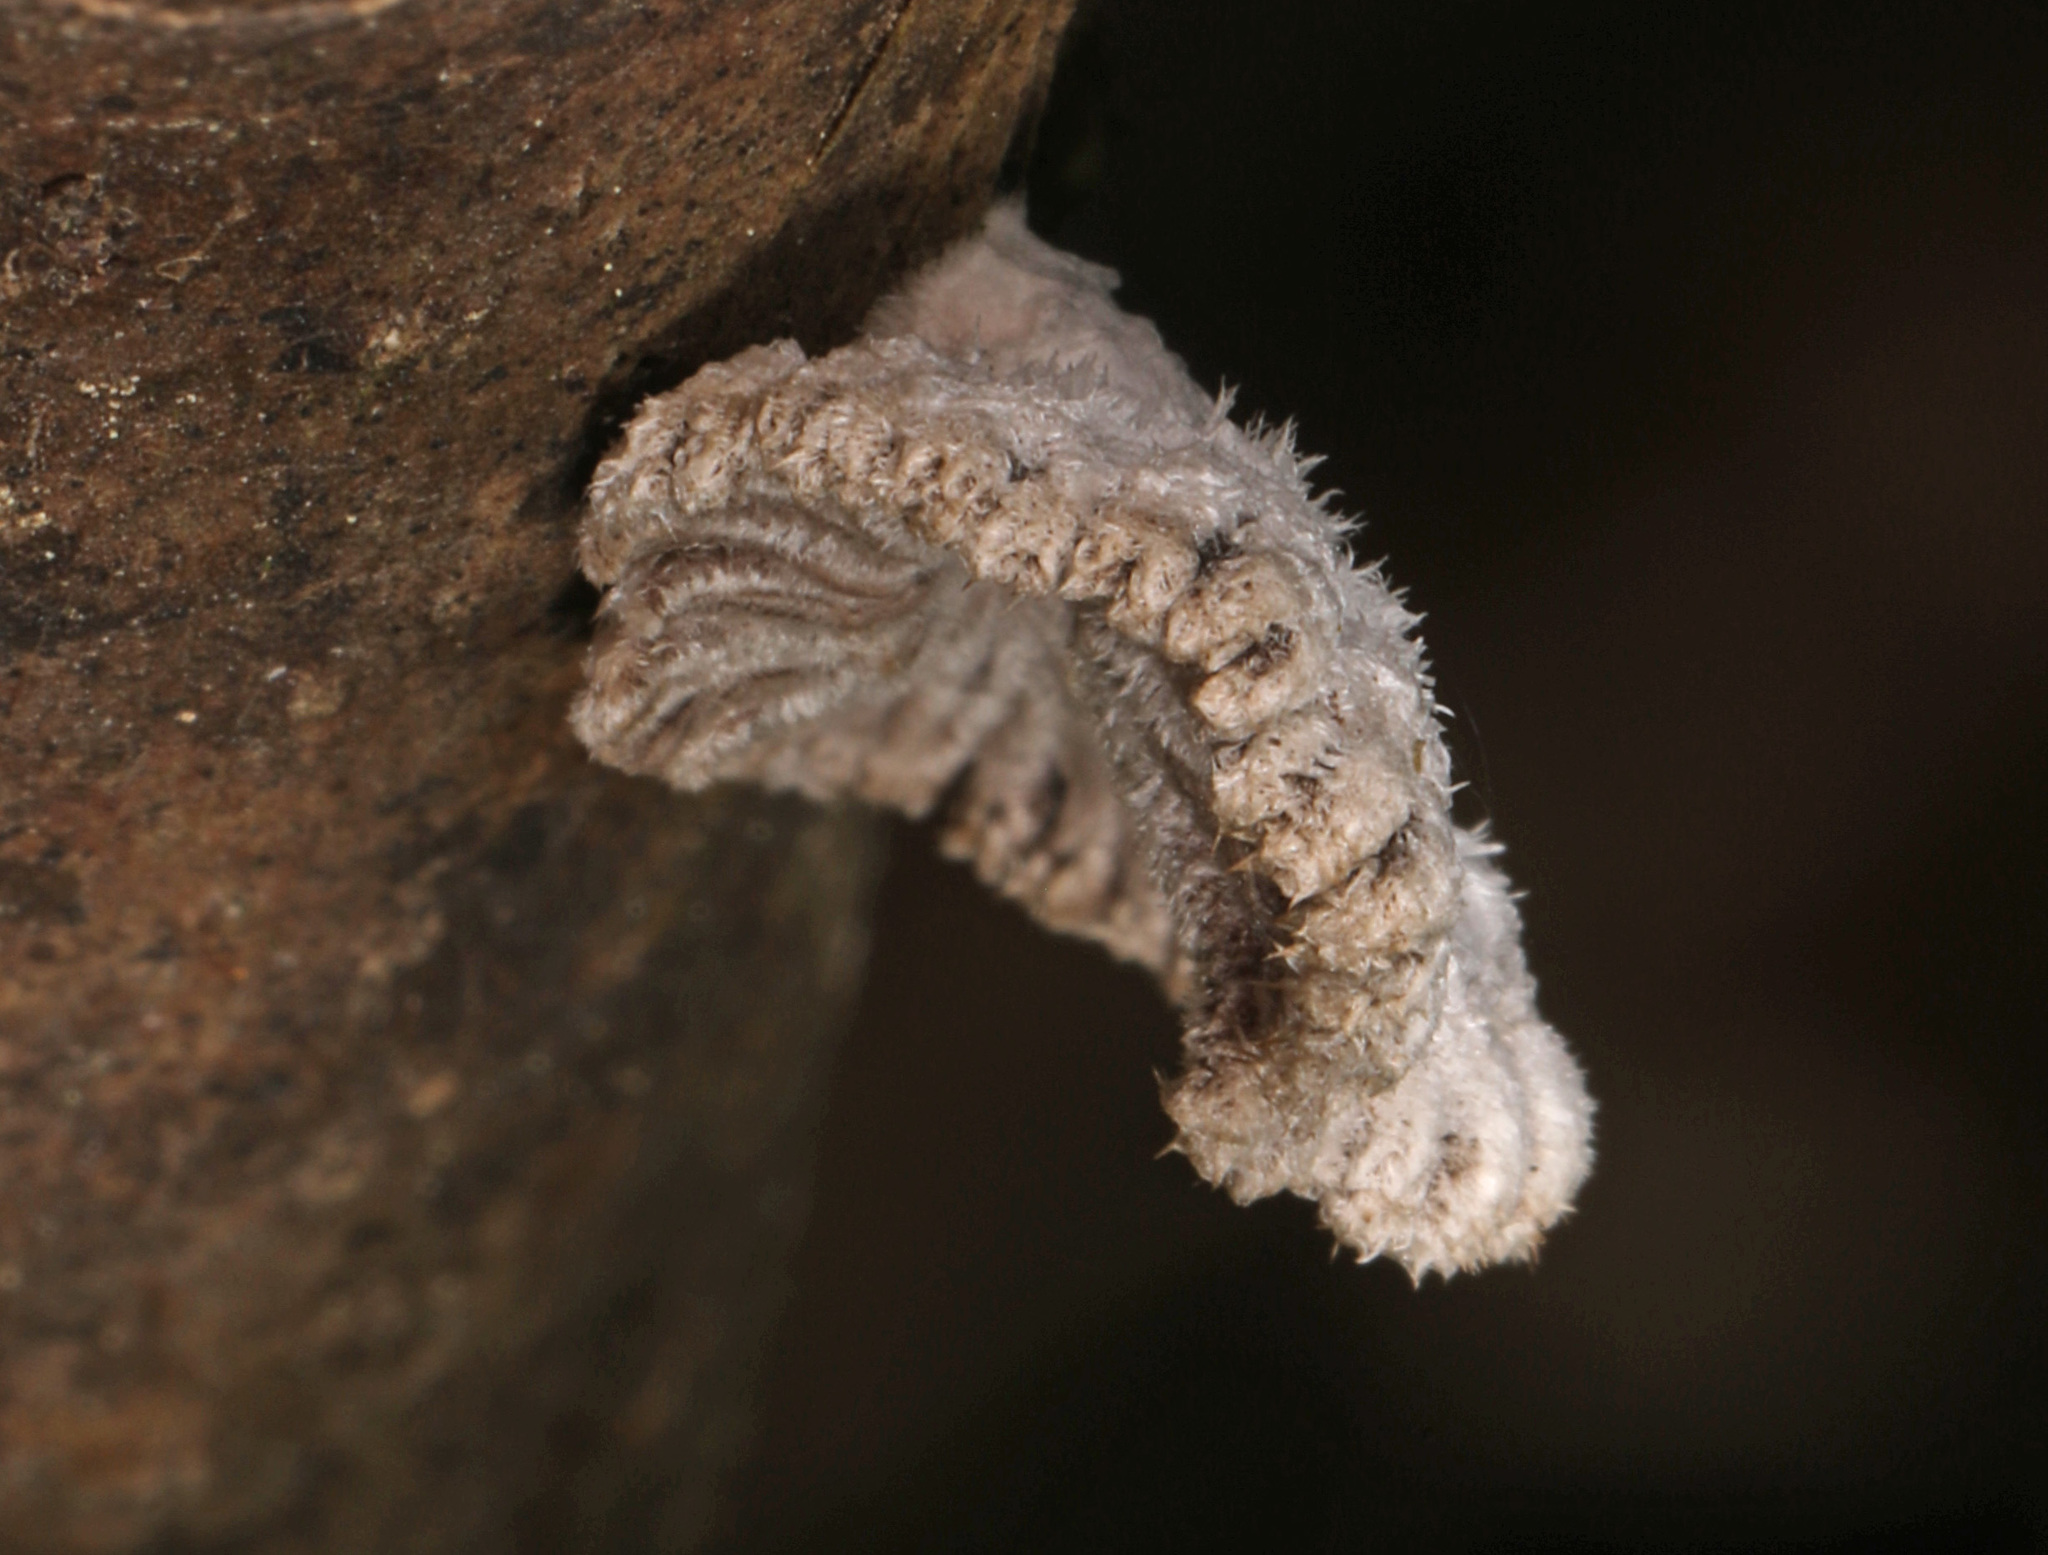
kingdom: Fungi
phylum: Basidiomycota
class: Agaricomycetes
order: Agaricales
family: Schizophyllaceae
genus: Schizophyllum
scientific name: Schizophyllum commune
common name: Common porecrust
